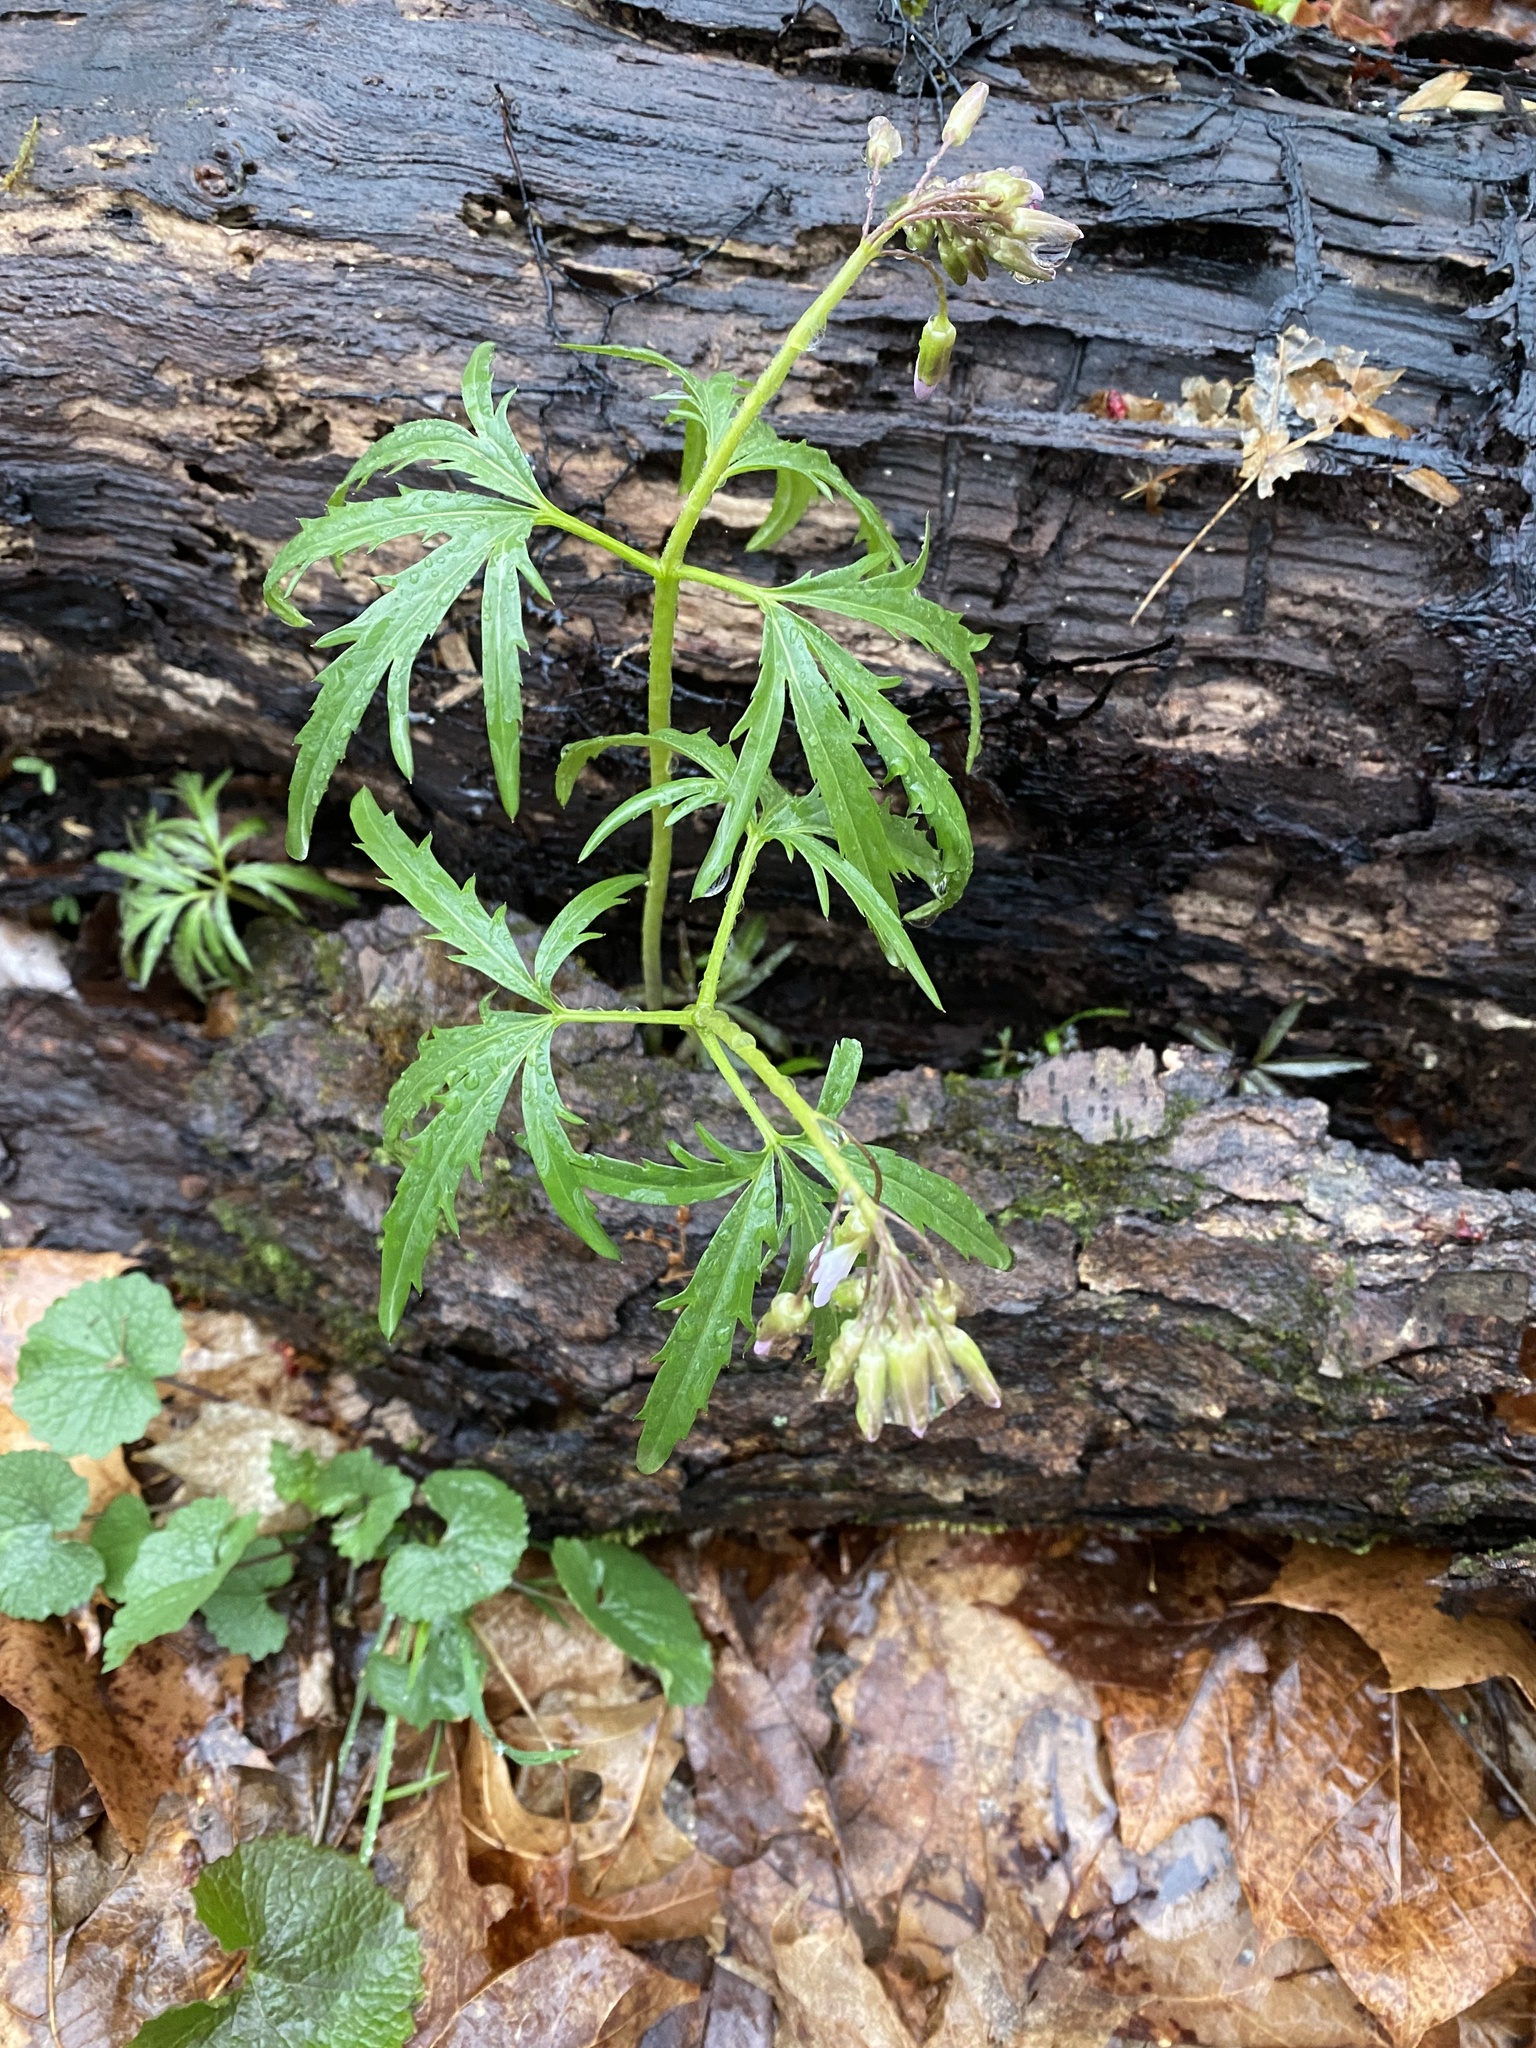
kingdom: Plantae
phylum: Tracheophyta
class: Magnoliopsida
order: Brassicales
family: Brassicaceae
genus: Cardamine
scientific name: Cardamine concatenata
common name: Cut-leaf toothcup
